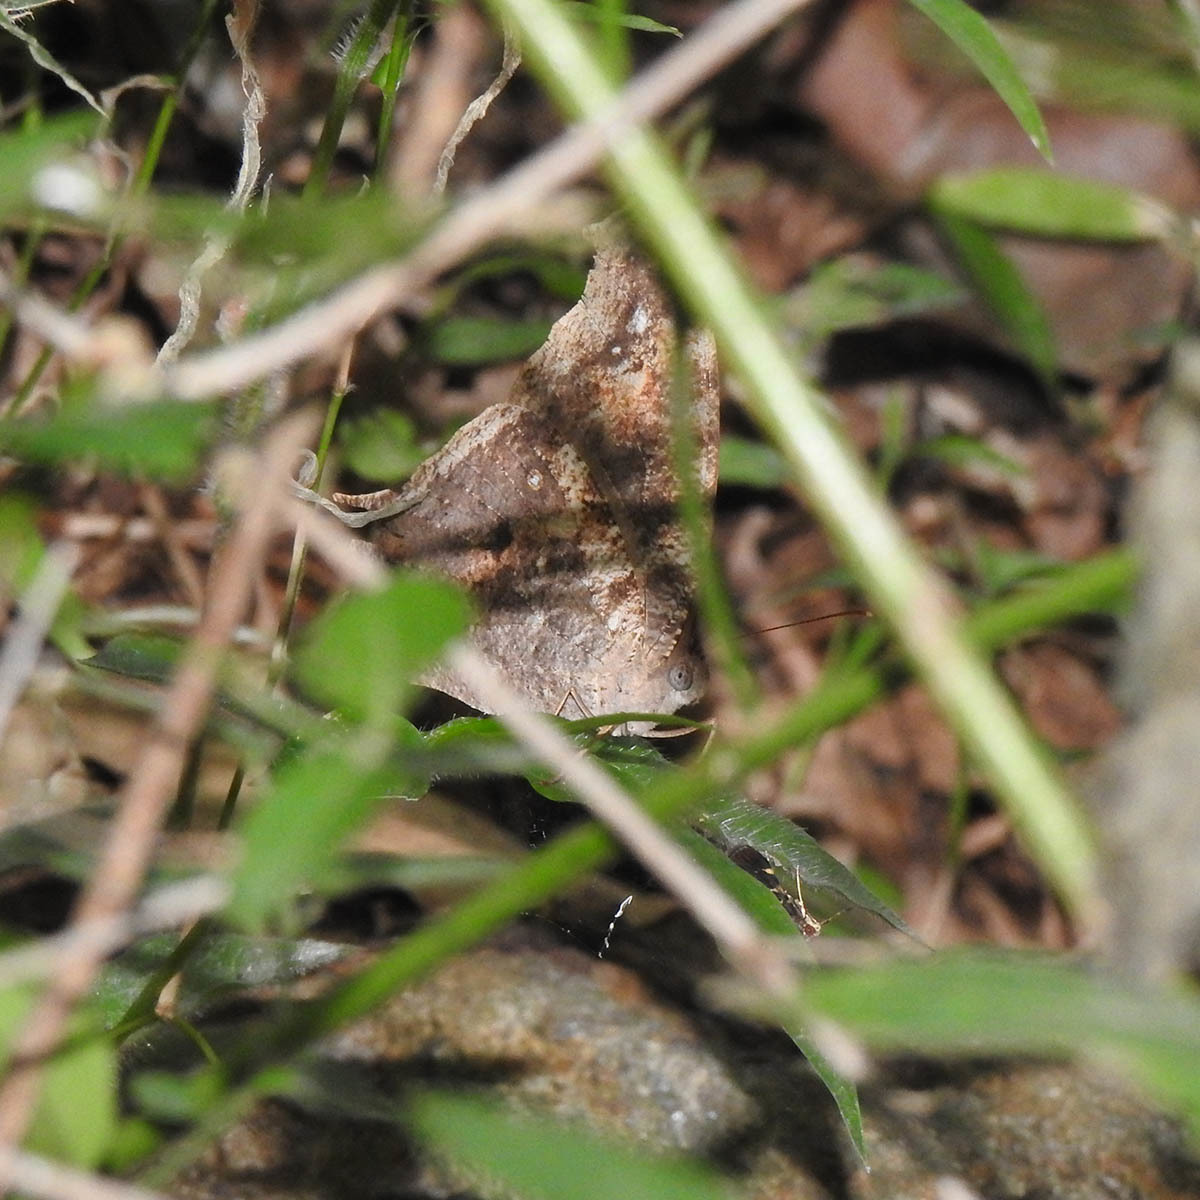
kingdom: Animalia
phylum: Arthropoda
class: Insecta
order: Lepidoptera
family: Nymphalidae
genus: Melanitis
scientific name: Melanitis leda
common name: Twilight brown
